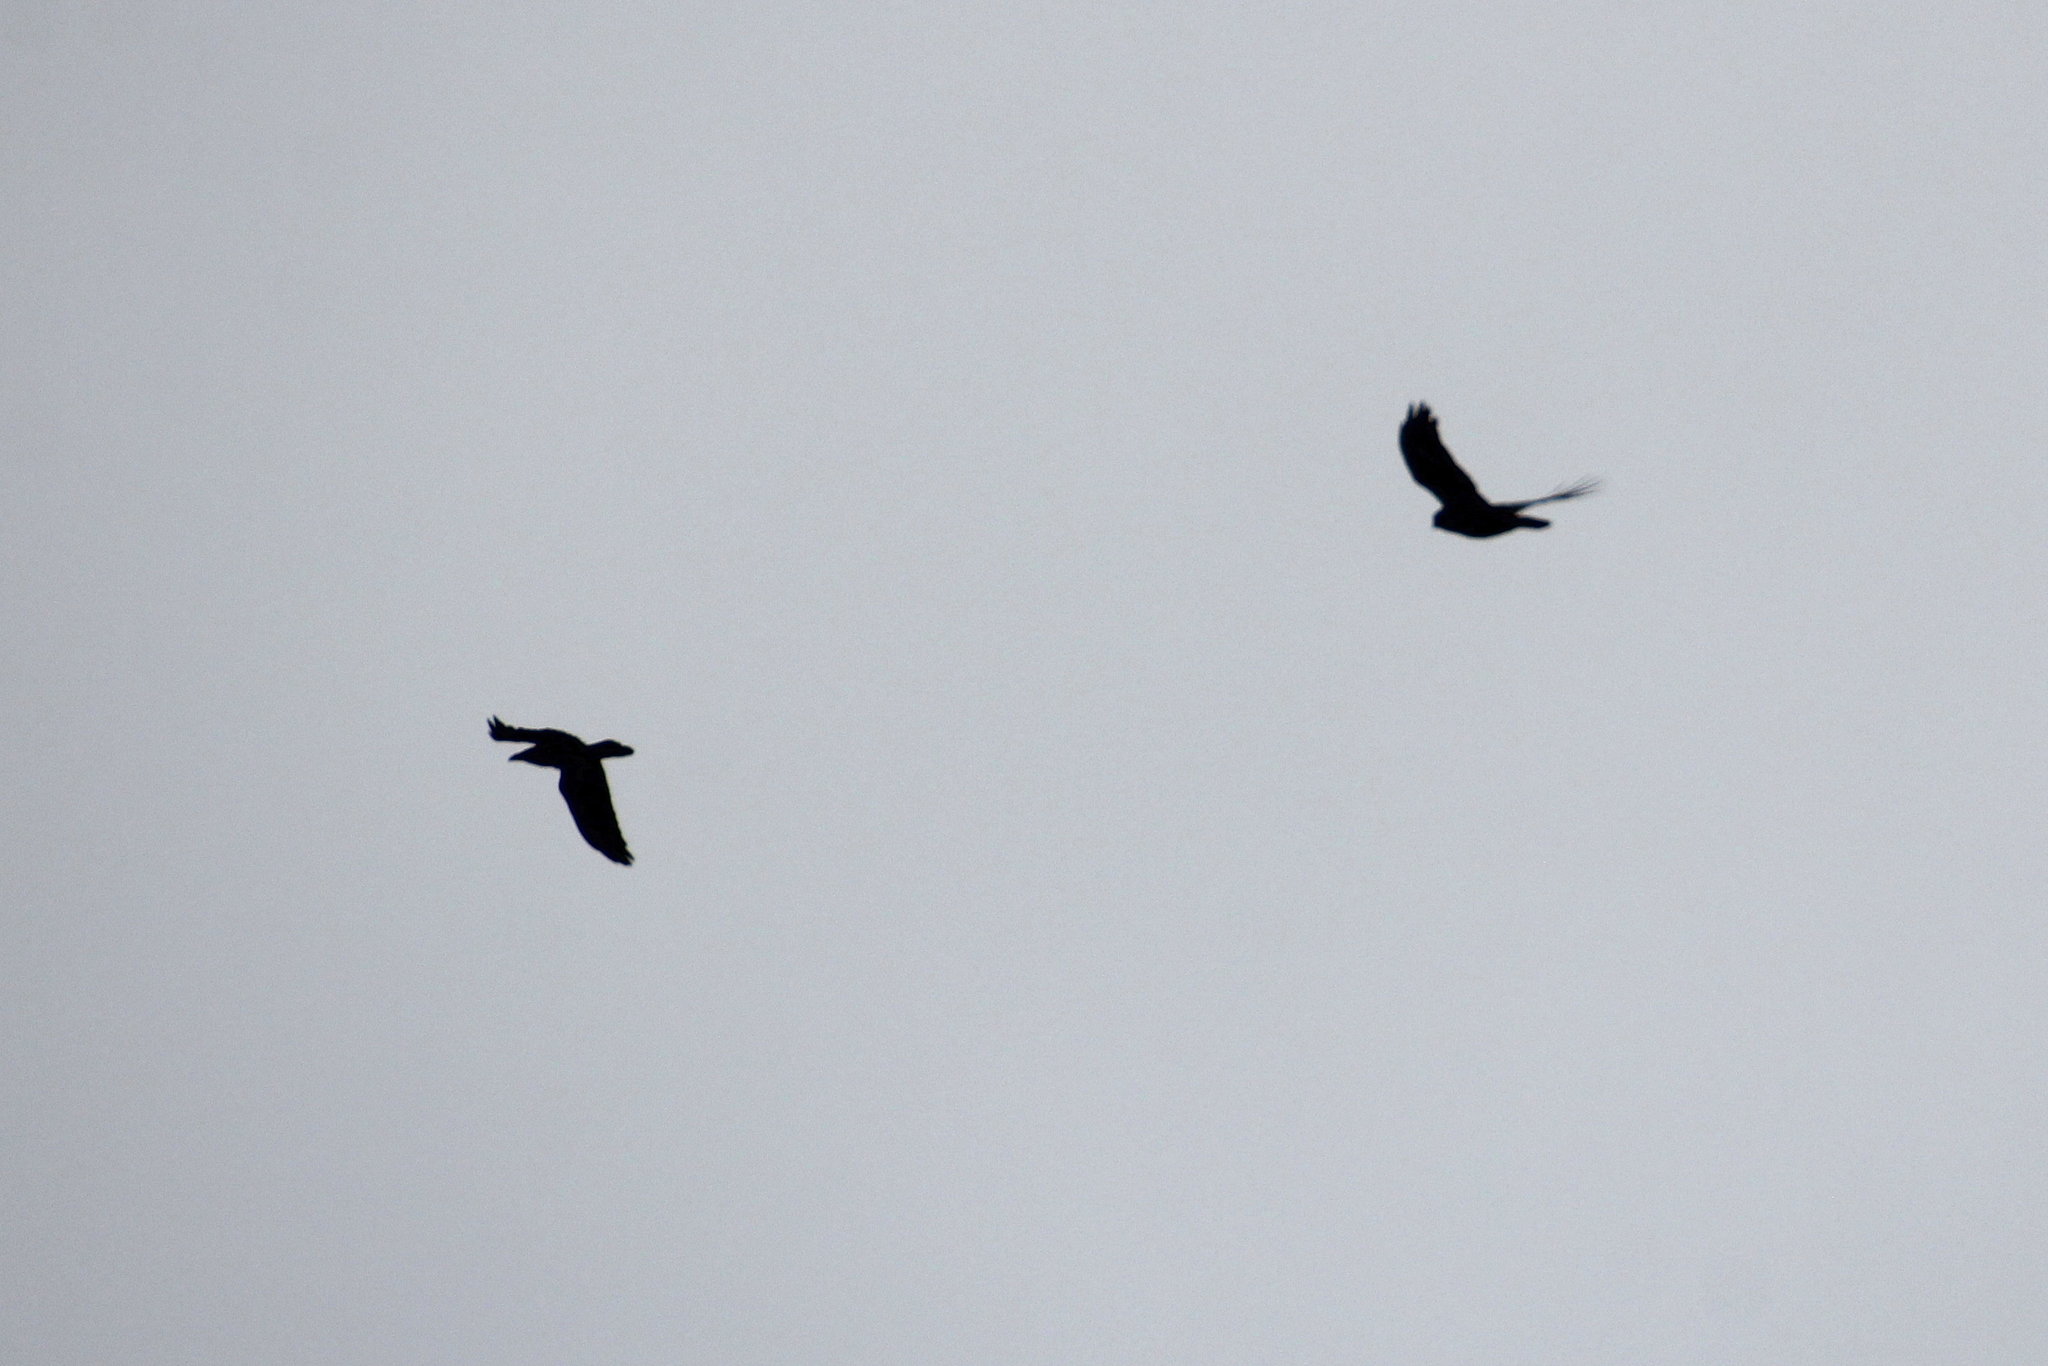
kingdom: Animalia
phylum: Chordata
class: Aves
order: Passeriformes
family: Corvidae
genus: Corvus
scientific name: Corvus corax
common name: Common raven
